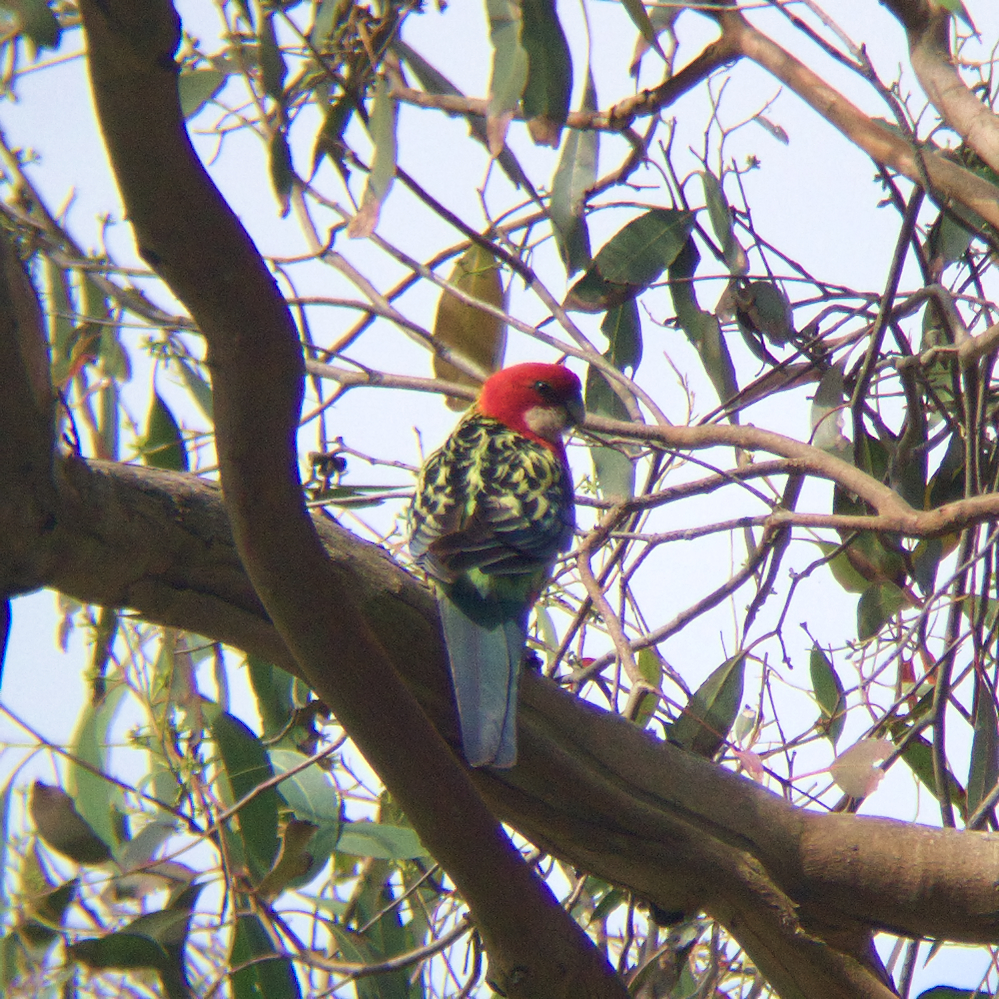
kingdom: Animalia
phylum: Chordata
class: Aves
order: Psittaciformes
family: Psittacidae
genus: Platycercus
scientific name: Platycercus eximius
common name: Eastern rosella
